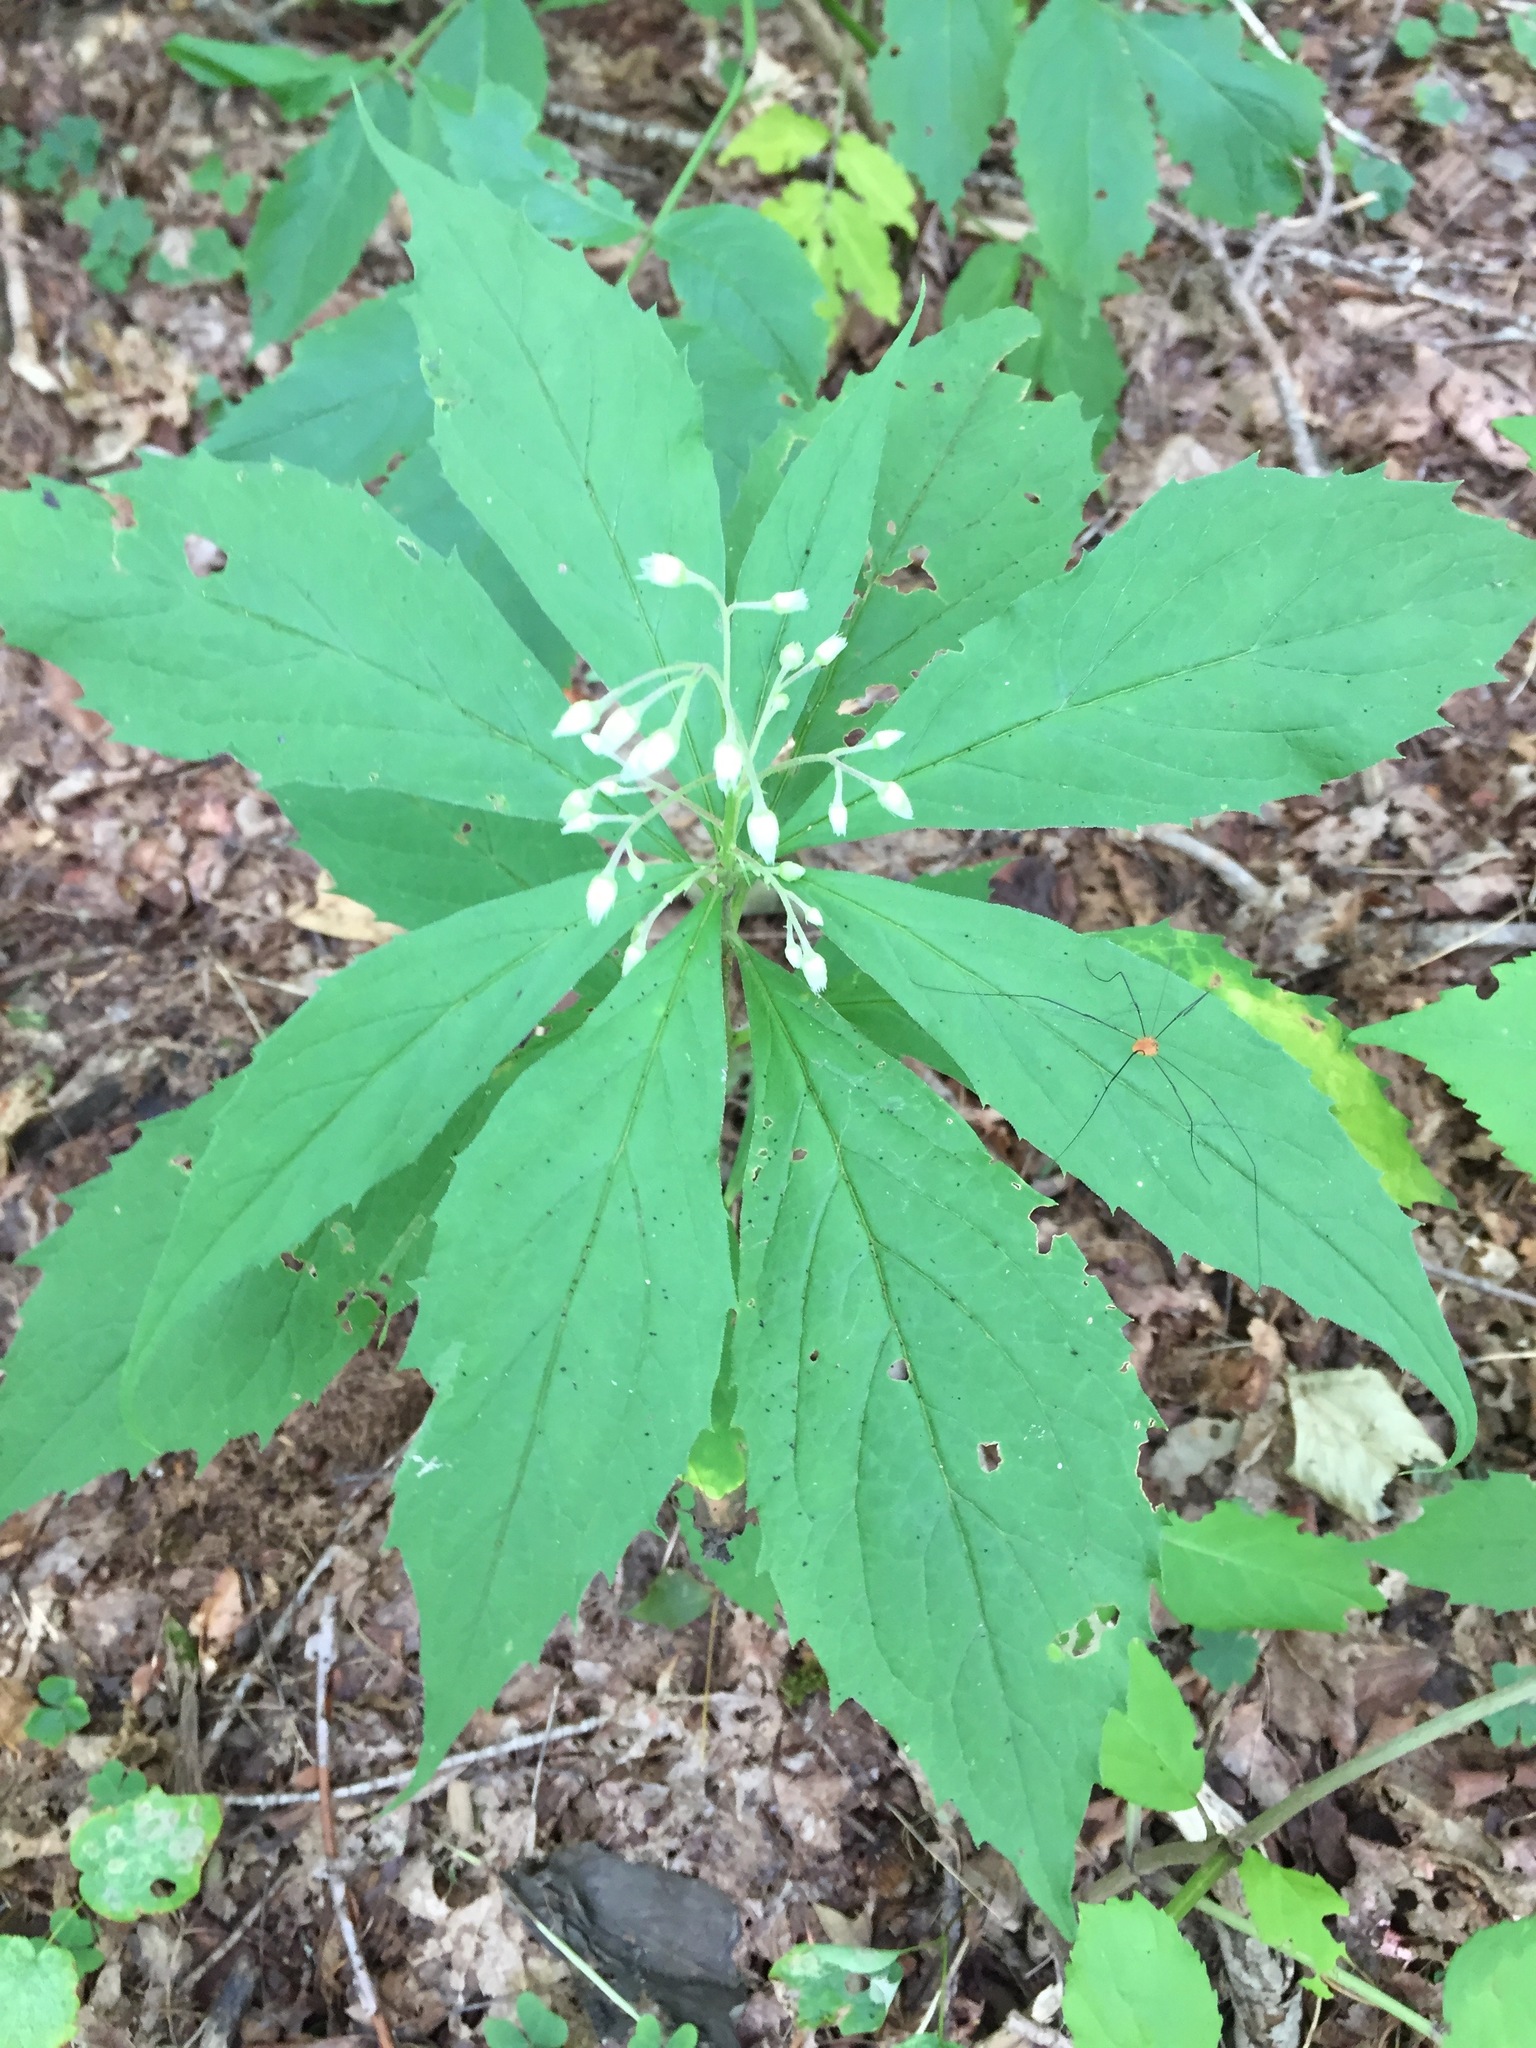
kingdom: Plantae
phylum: Tracheophyta
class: Magnoliopsida
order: Asterales
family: Asteraceae
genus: Oclemena
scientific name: Oclemena acuminata
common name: Mountain aster
